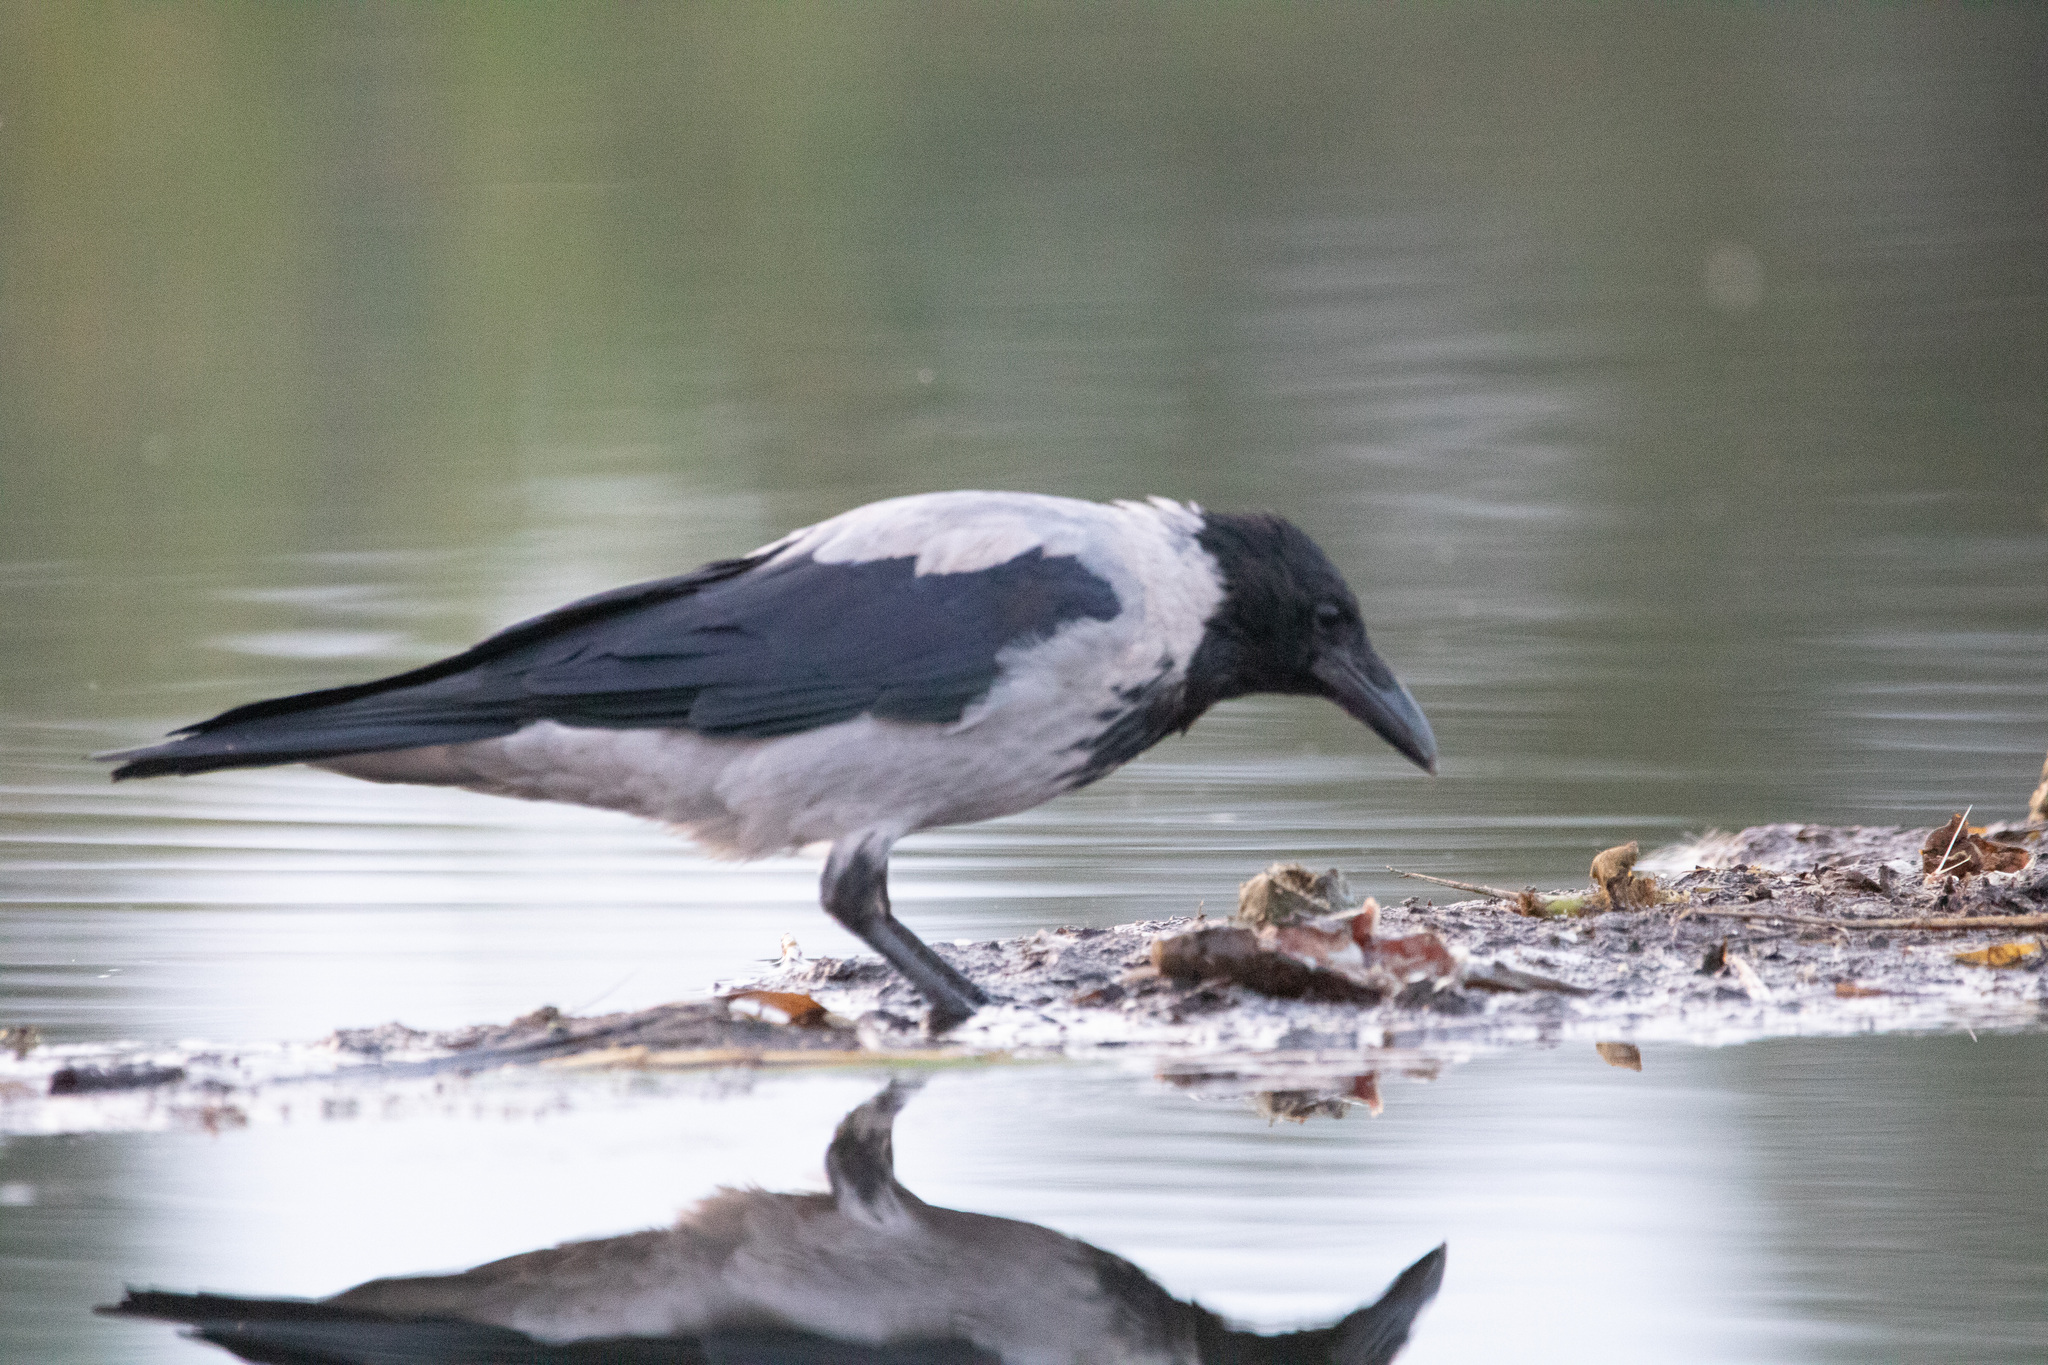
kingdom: Animalia
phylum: Chordata
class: Aves
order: Passeriformes
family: Corvidae
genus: Corvus
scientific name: Corvus cornix
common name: Hooded crow
